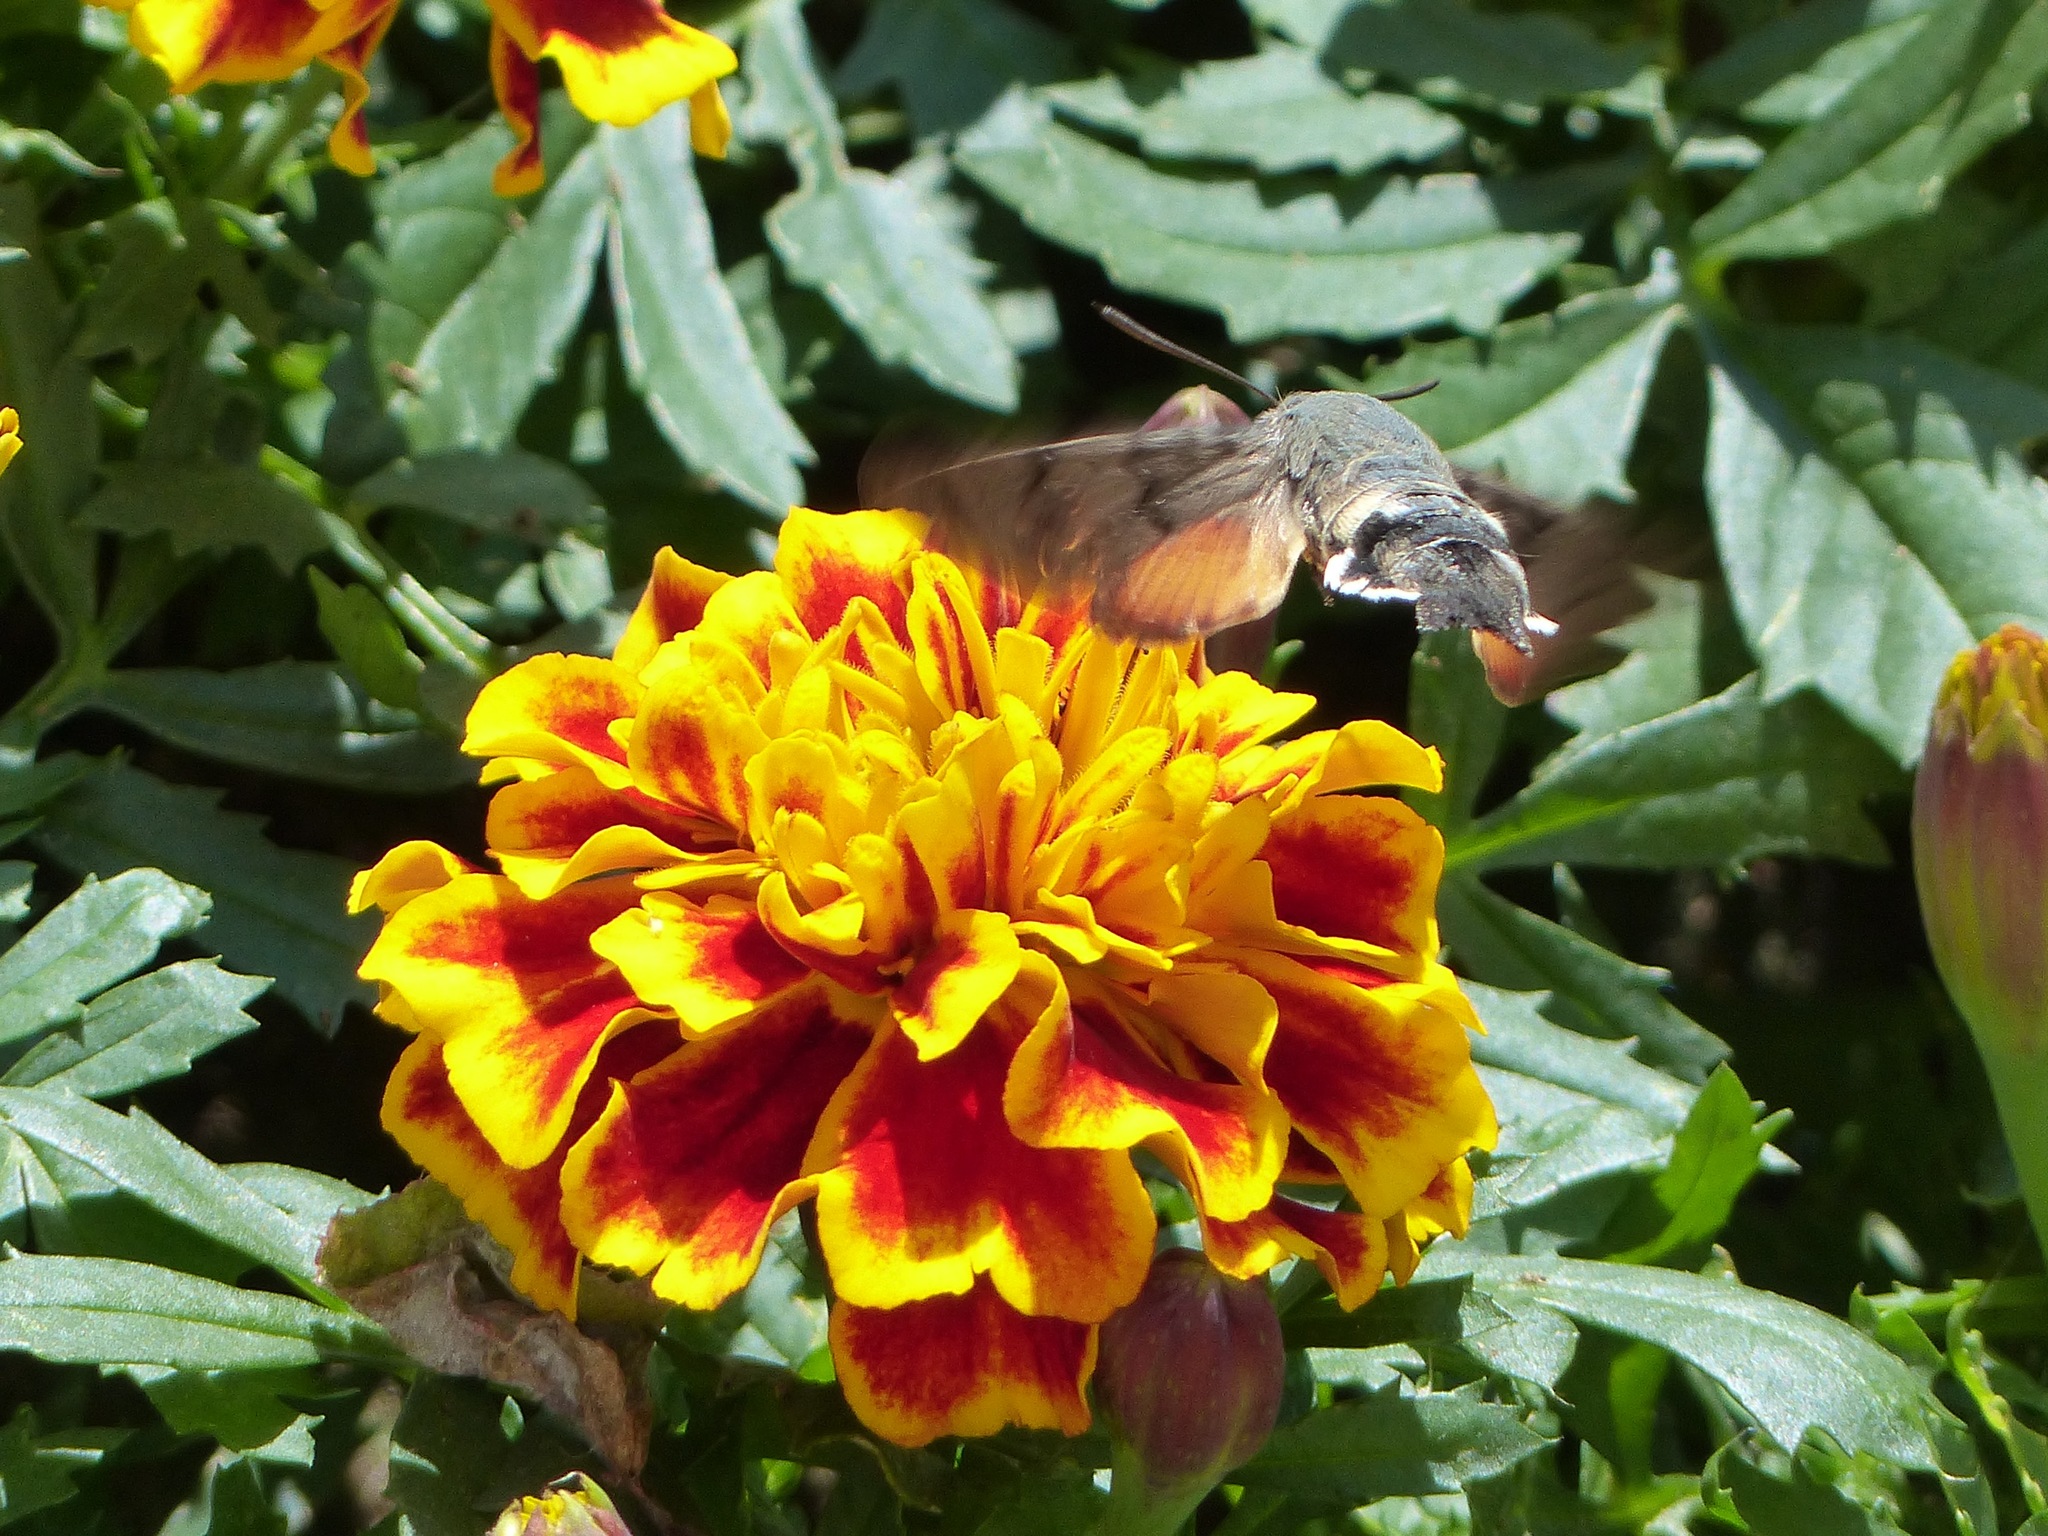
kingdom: Animalia
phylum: Arthropoda
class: Insecta
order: Lepidoptera
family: Sphingidae
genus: Macroglossum
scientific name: Macroglossum stellatarum
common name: Humming-bird hawk-moth
